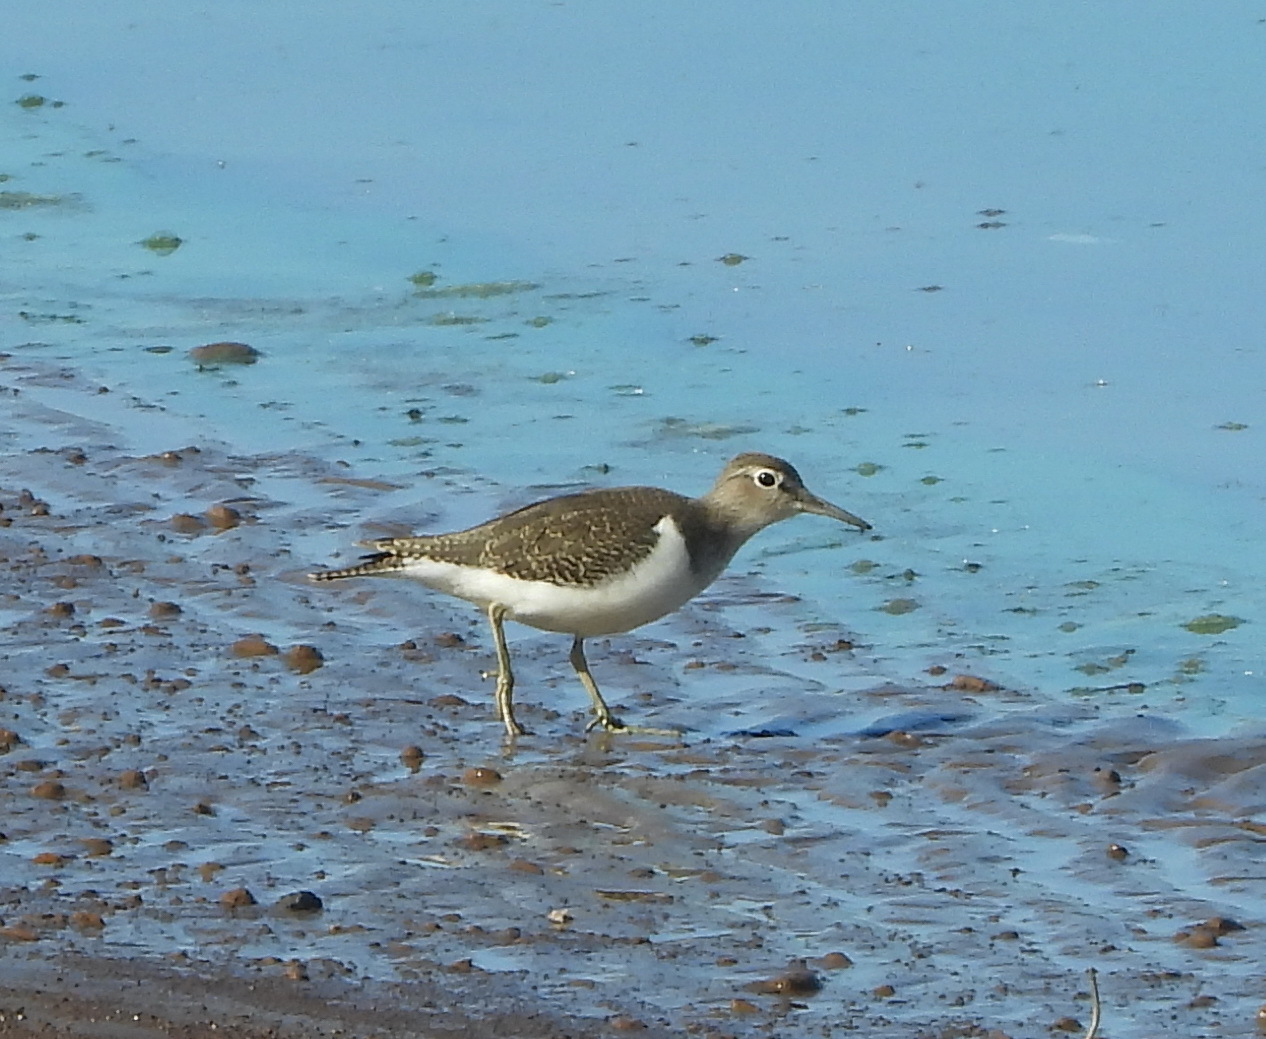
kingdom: Animalia
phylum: Chordata
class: Aves
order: Charadriiformes
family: Scolopacidae
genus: Actitis
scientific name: Actitis hypoleucos
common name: Common sandpiper
